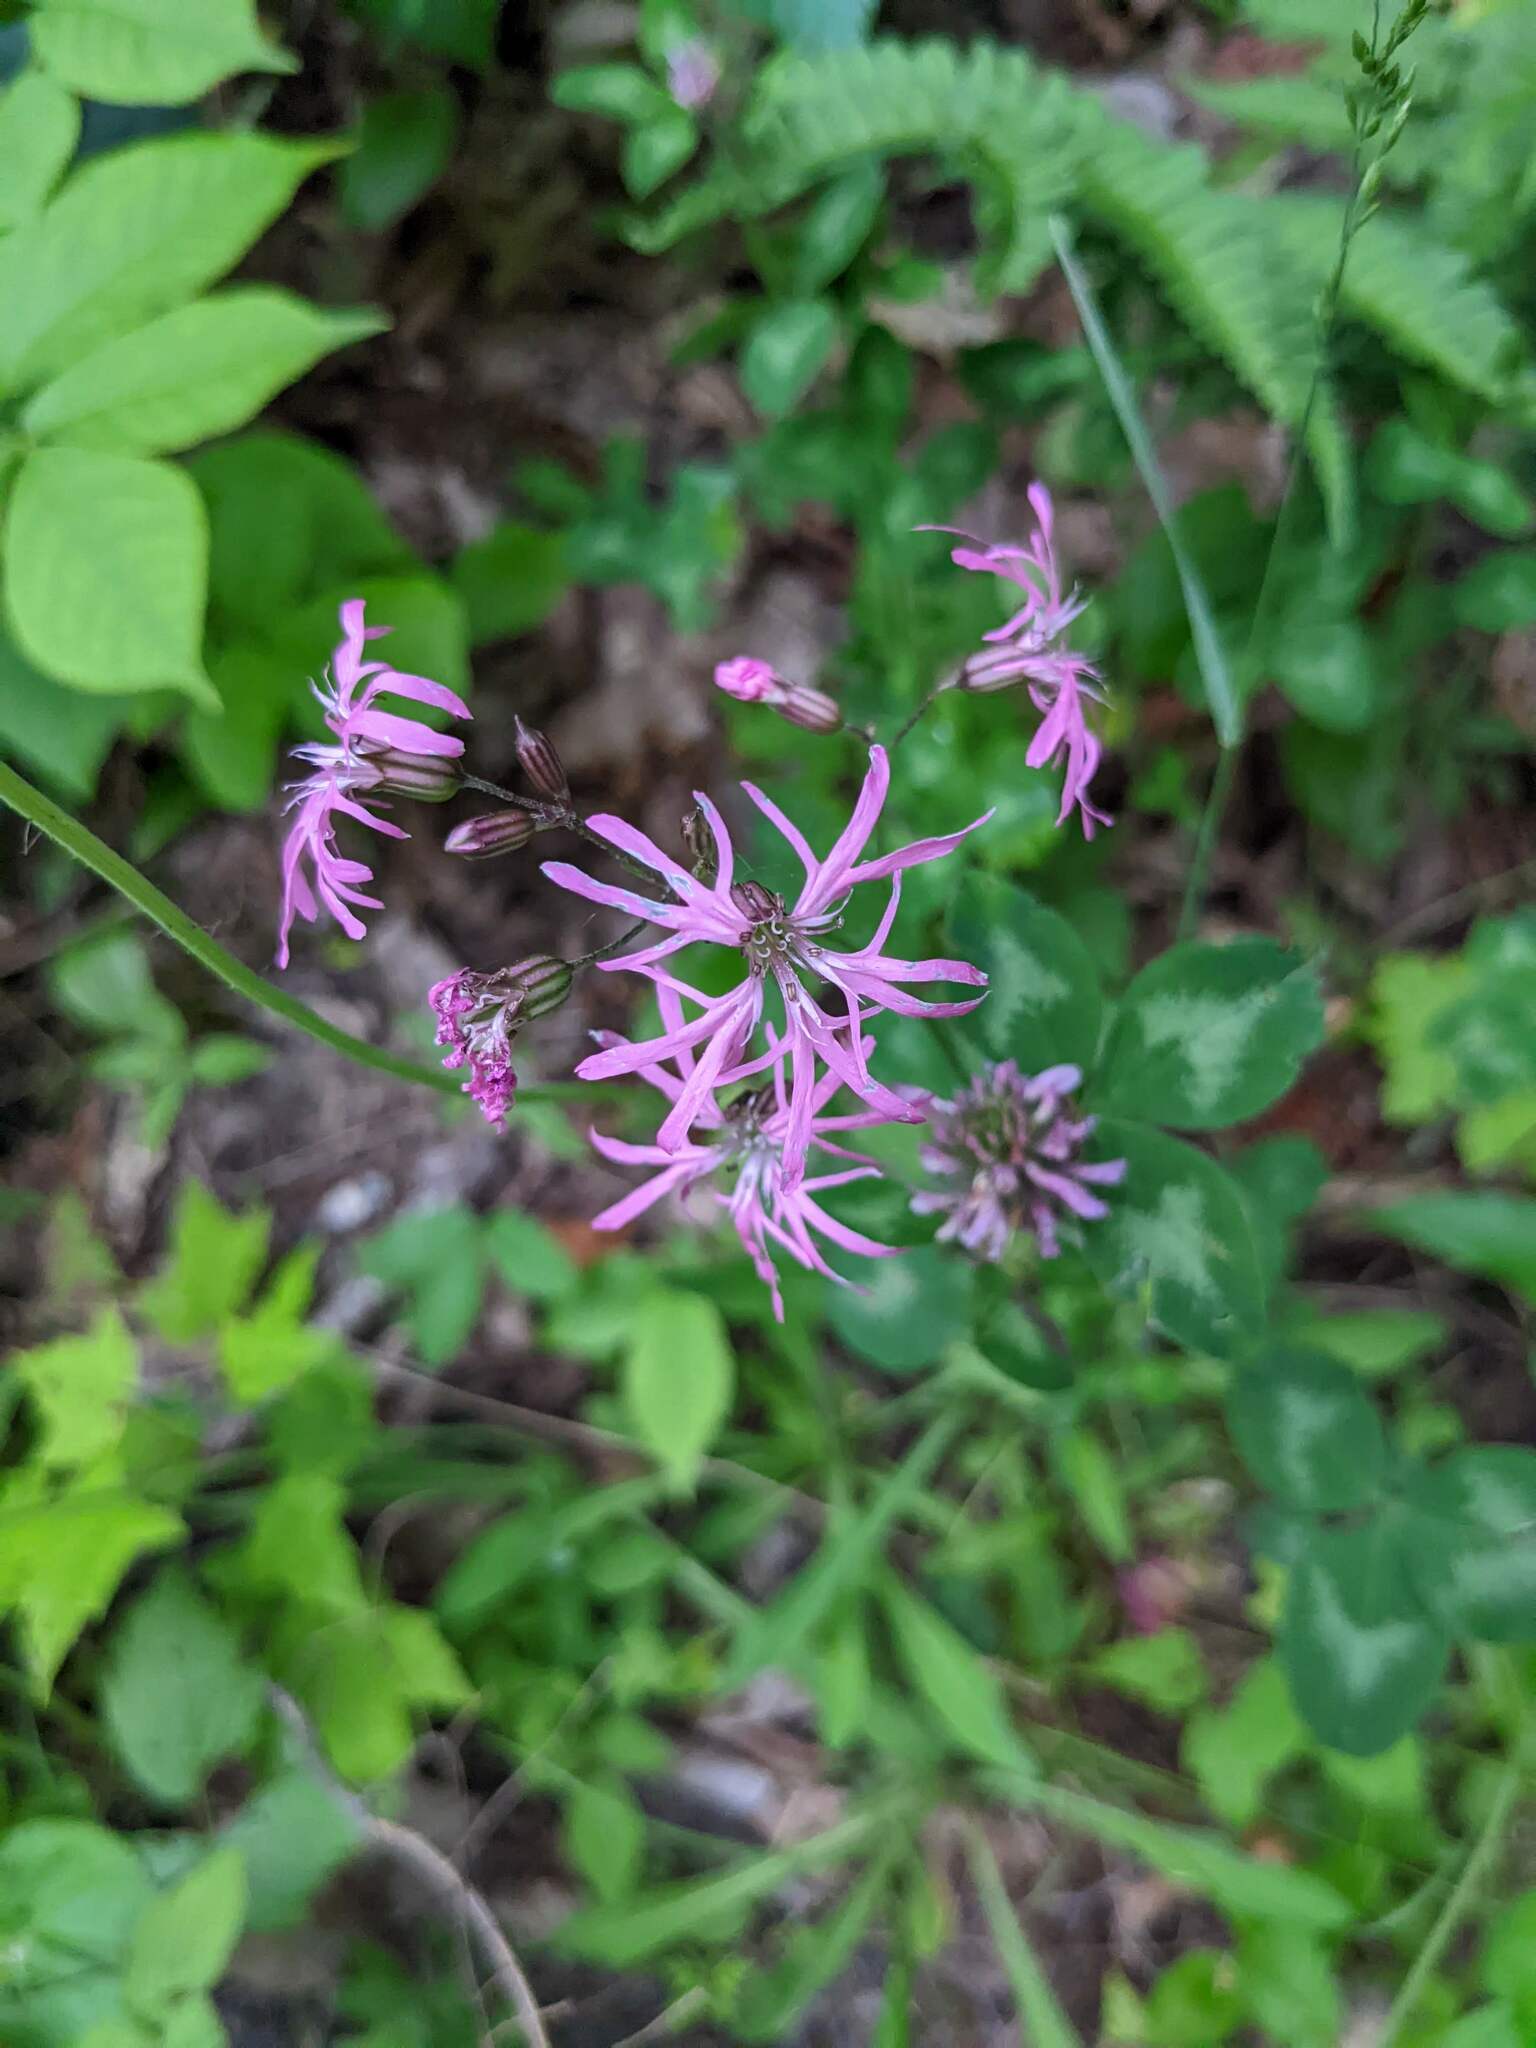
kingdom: Plantae
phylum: Tracheophyta
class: Magnoliopsida
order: Caryophyllales
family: Caryophyllaceae
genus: Silene
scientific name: Silene flos-cuculi
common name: Ragged-robin
